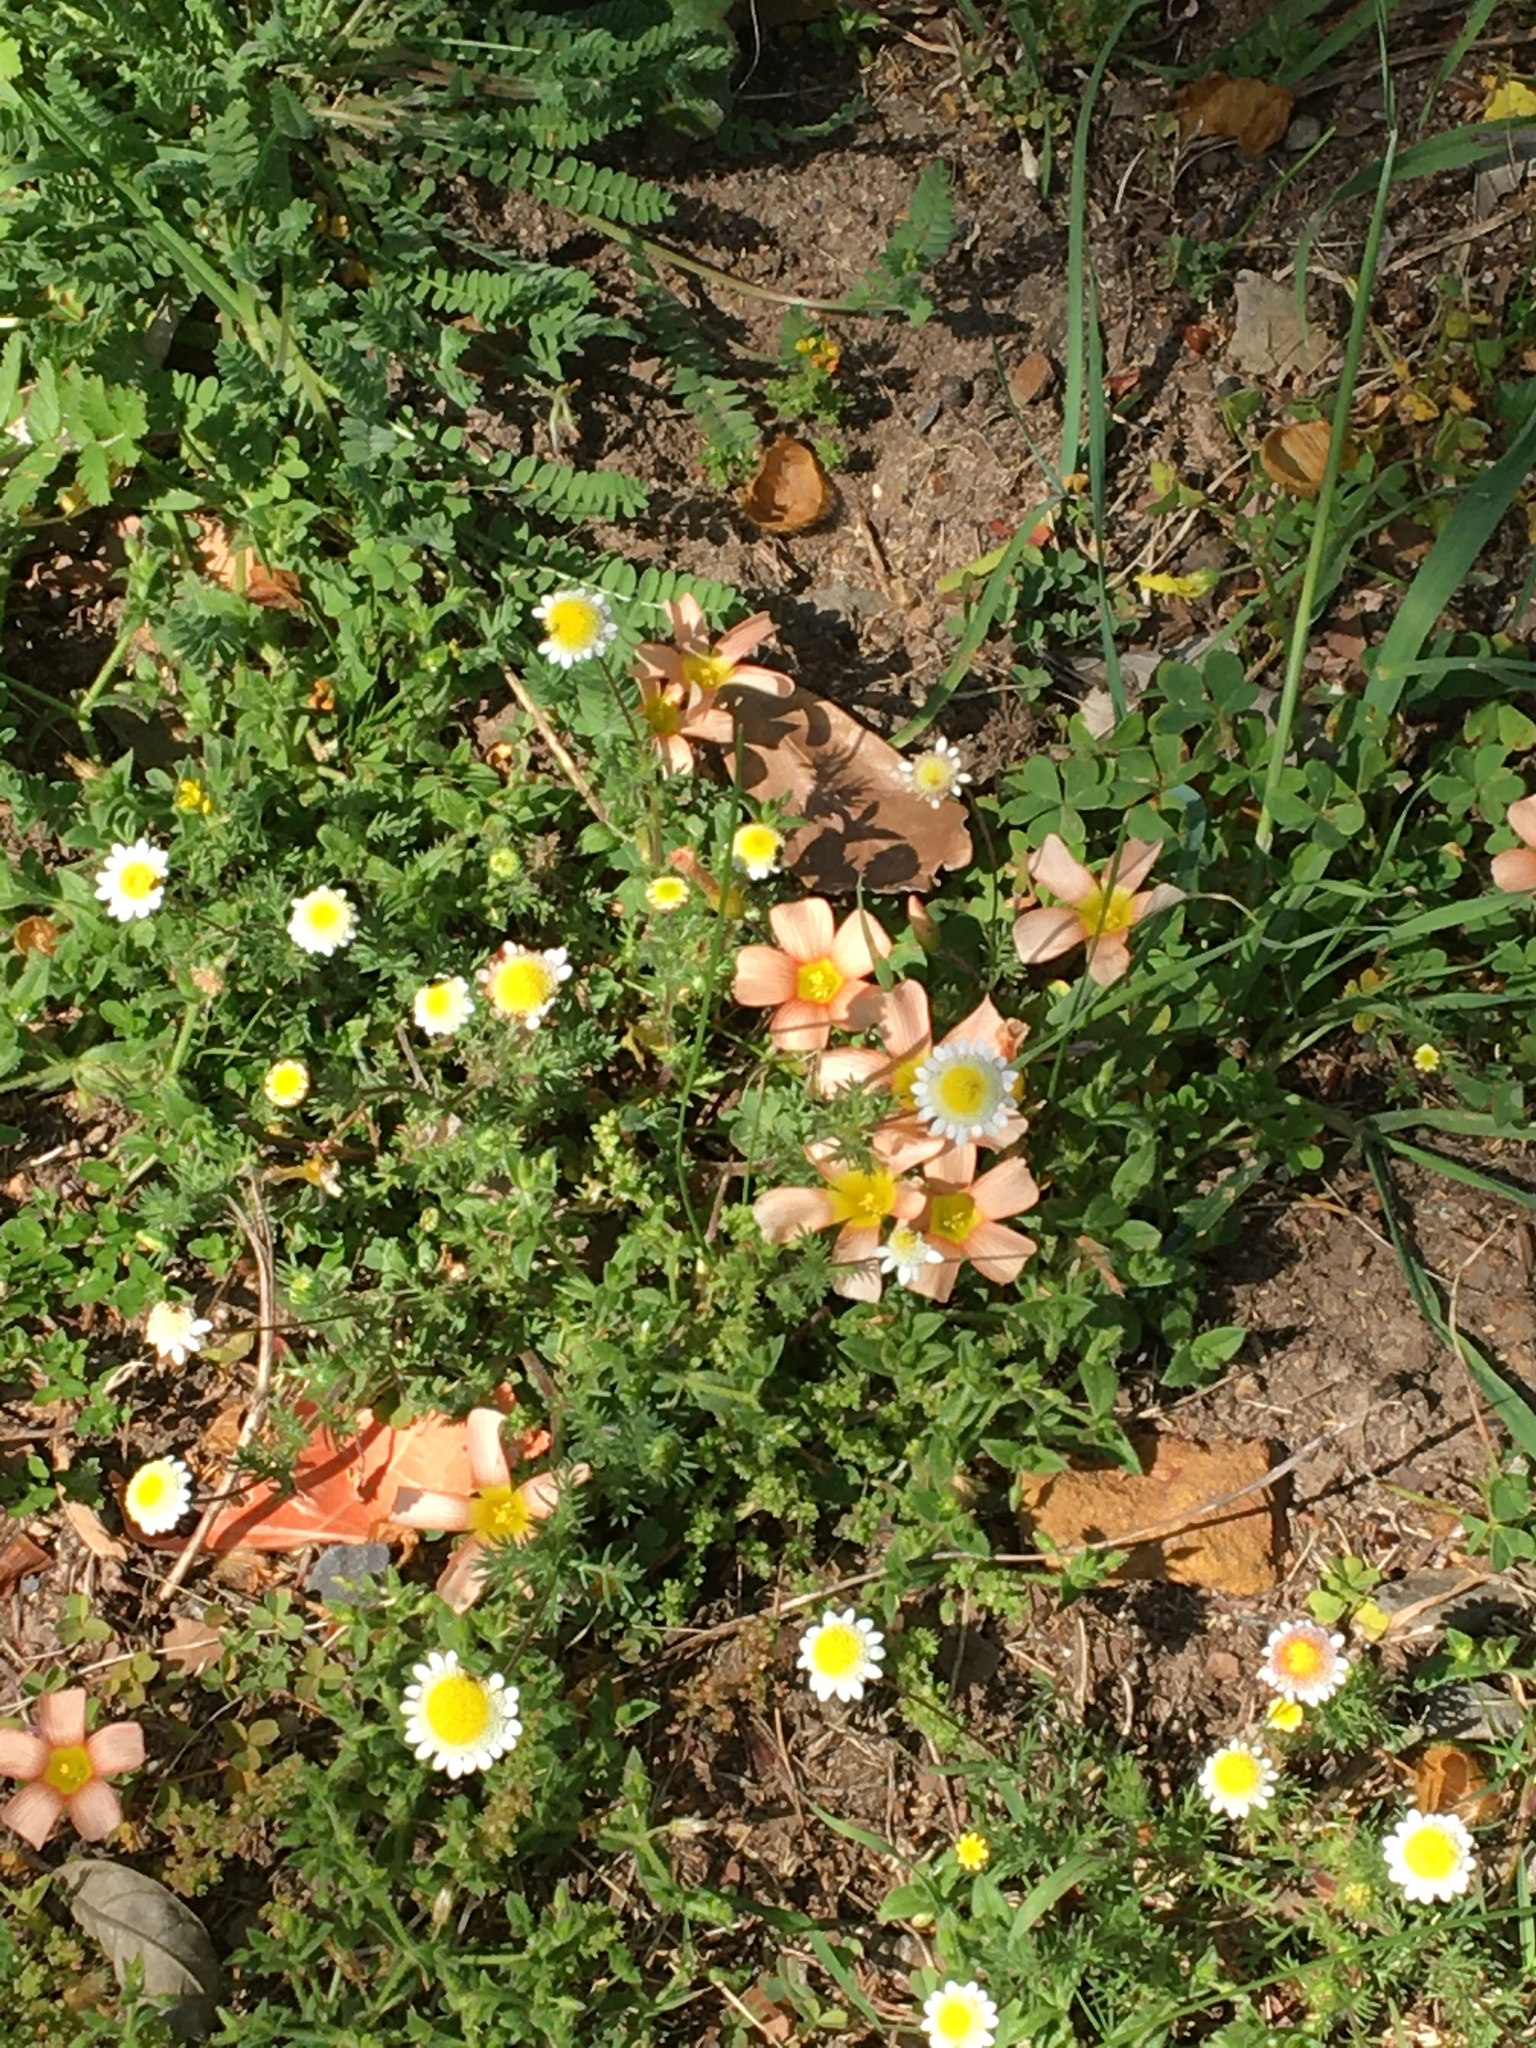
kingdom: Plantae
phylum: Tracheophyta
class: Magnoliopsida
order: Oxalidales
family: Oxalidaceae
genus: Oxalis
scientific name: Oxalis obtusa
